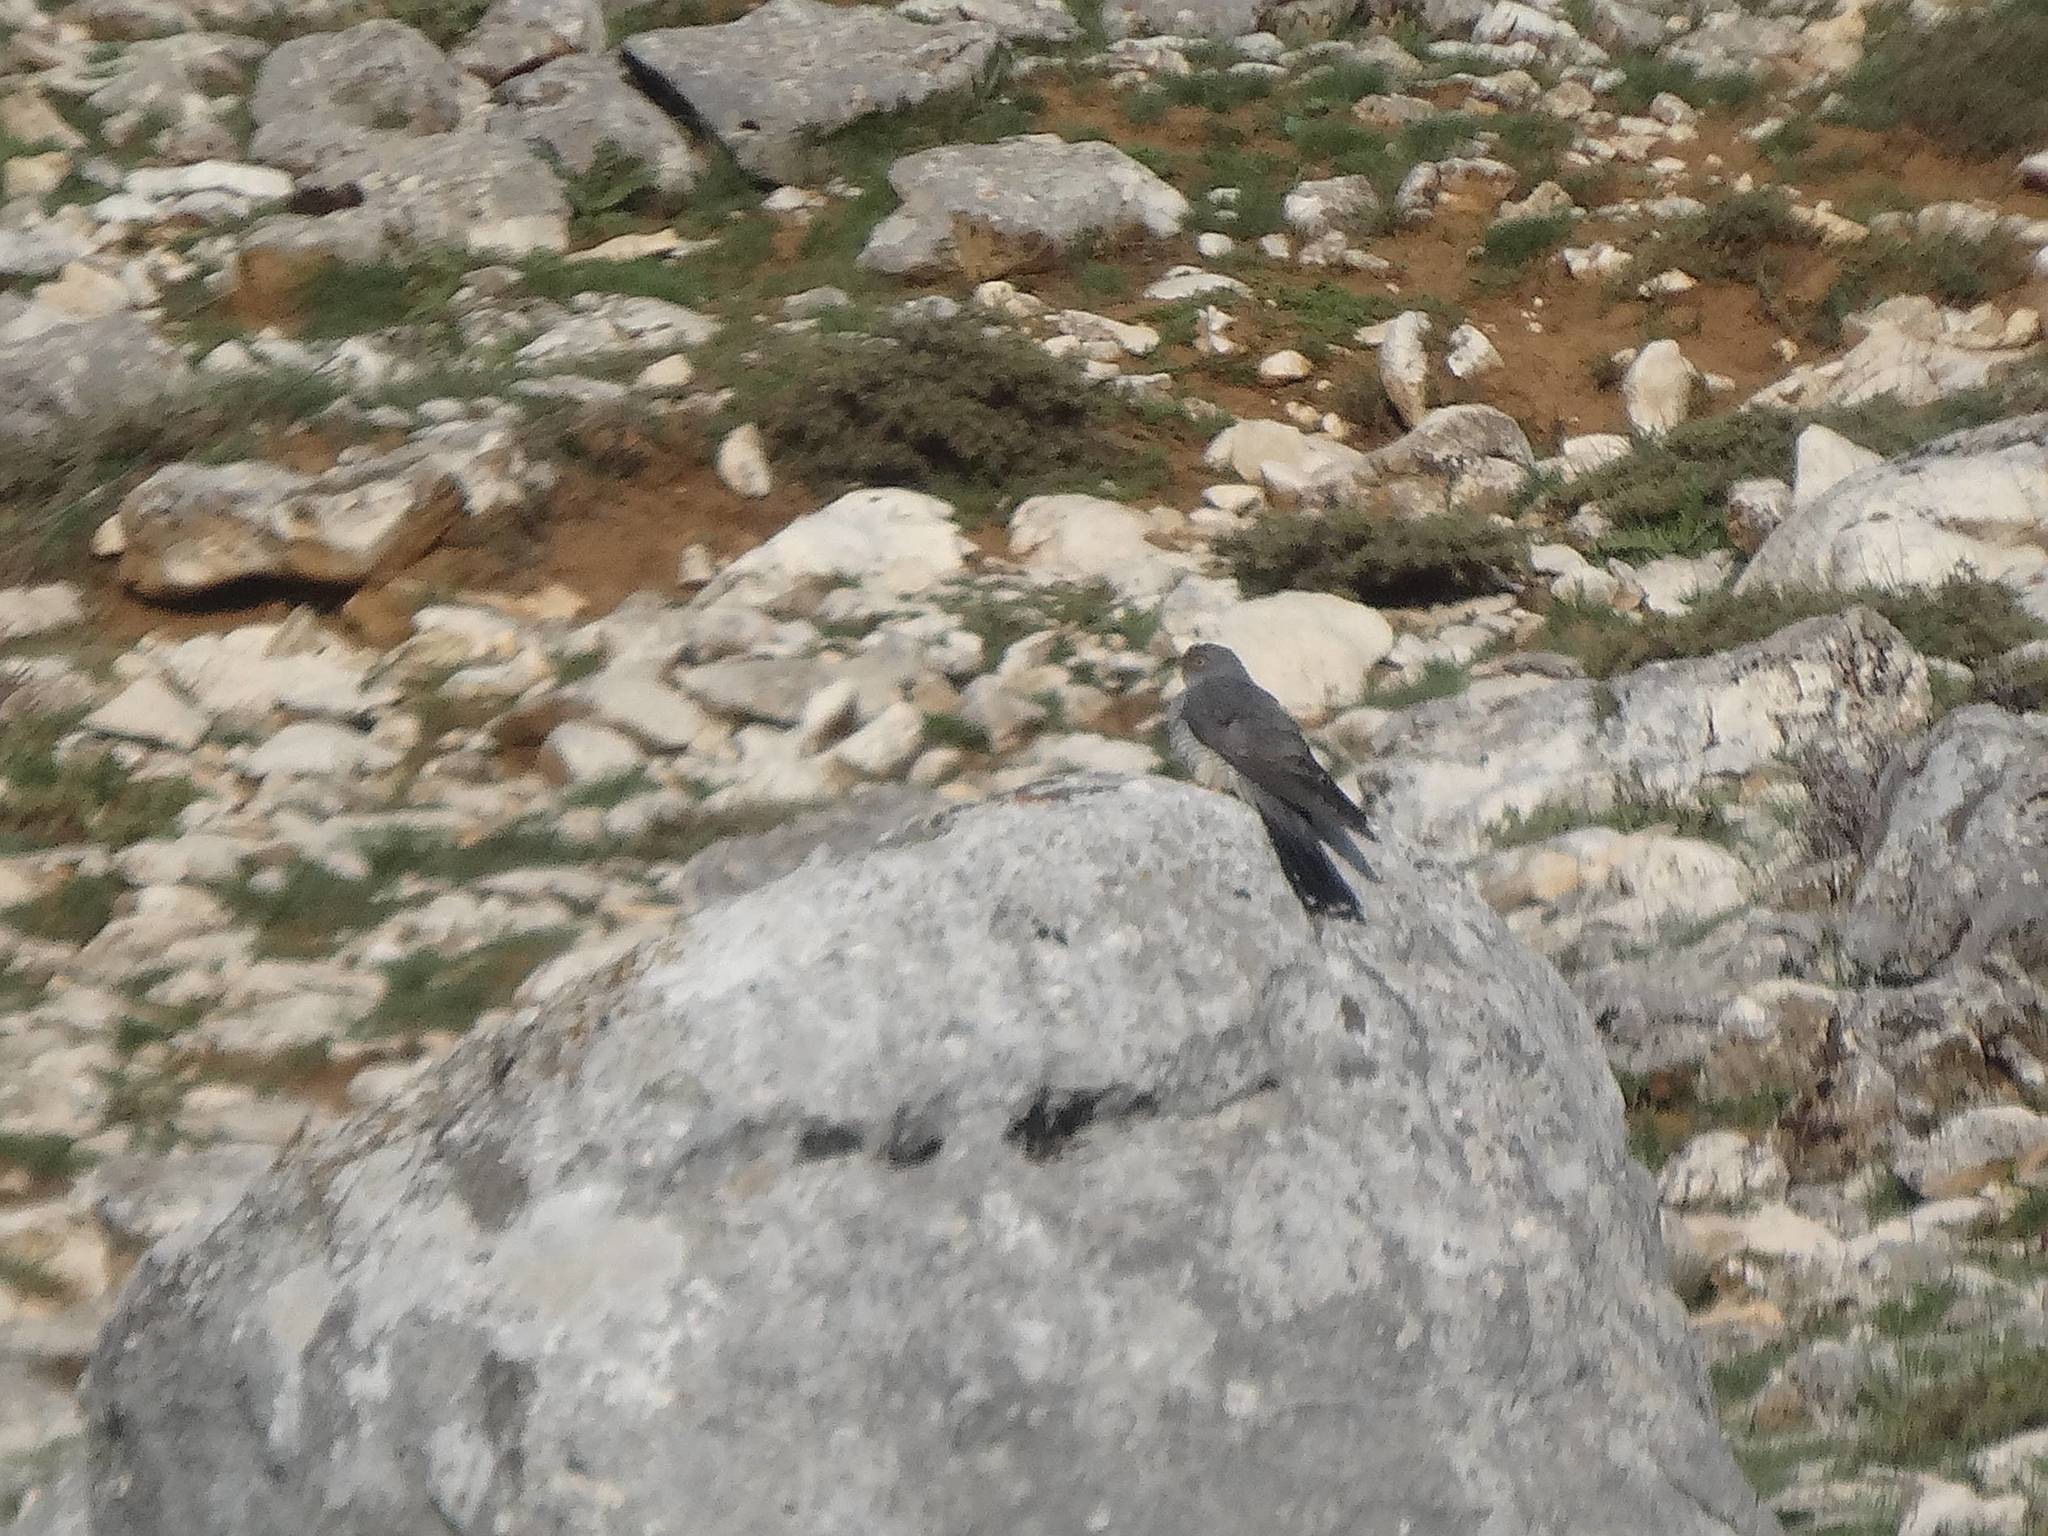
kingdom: Animalia
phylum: Chordata
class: Aves
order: Cuculiformes
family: Cuculidae
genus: Cuculus
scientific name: Cuculus canorus
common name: Common cuckoo
